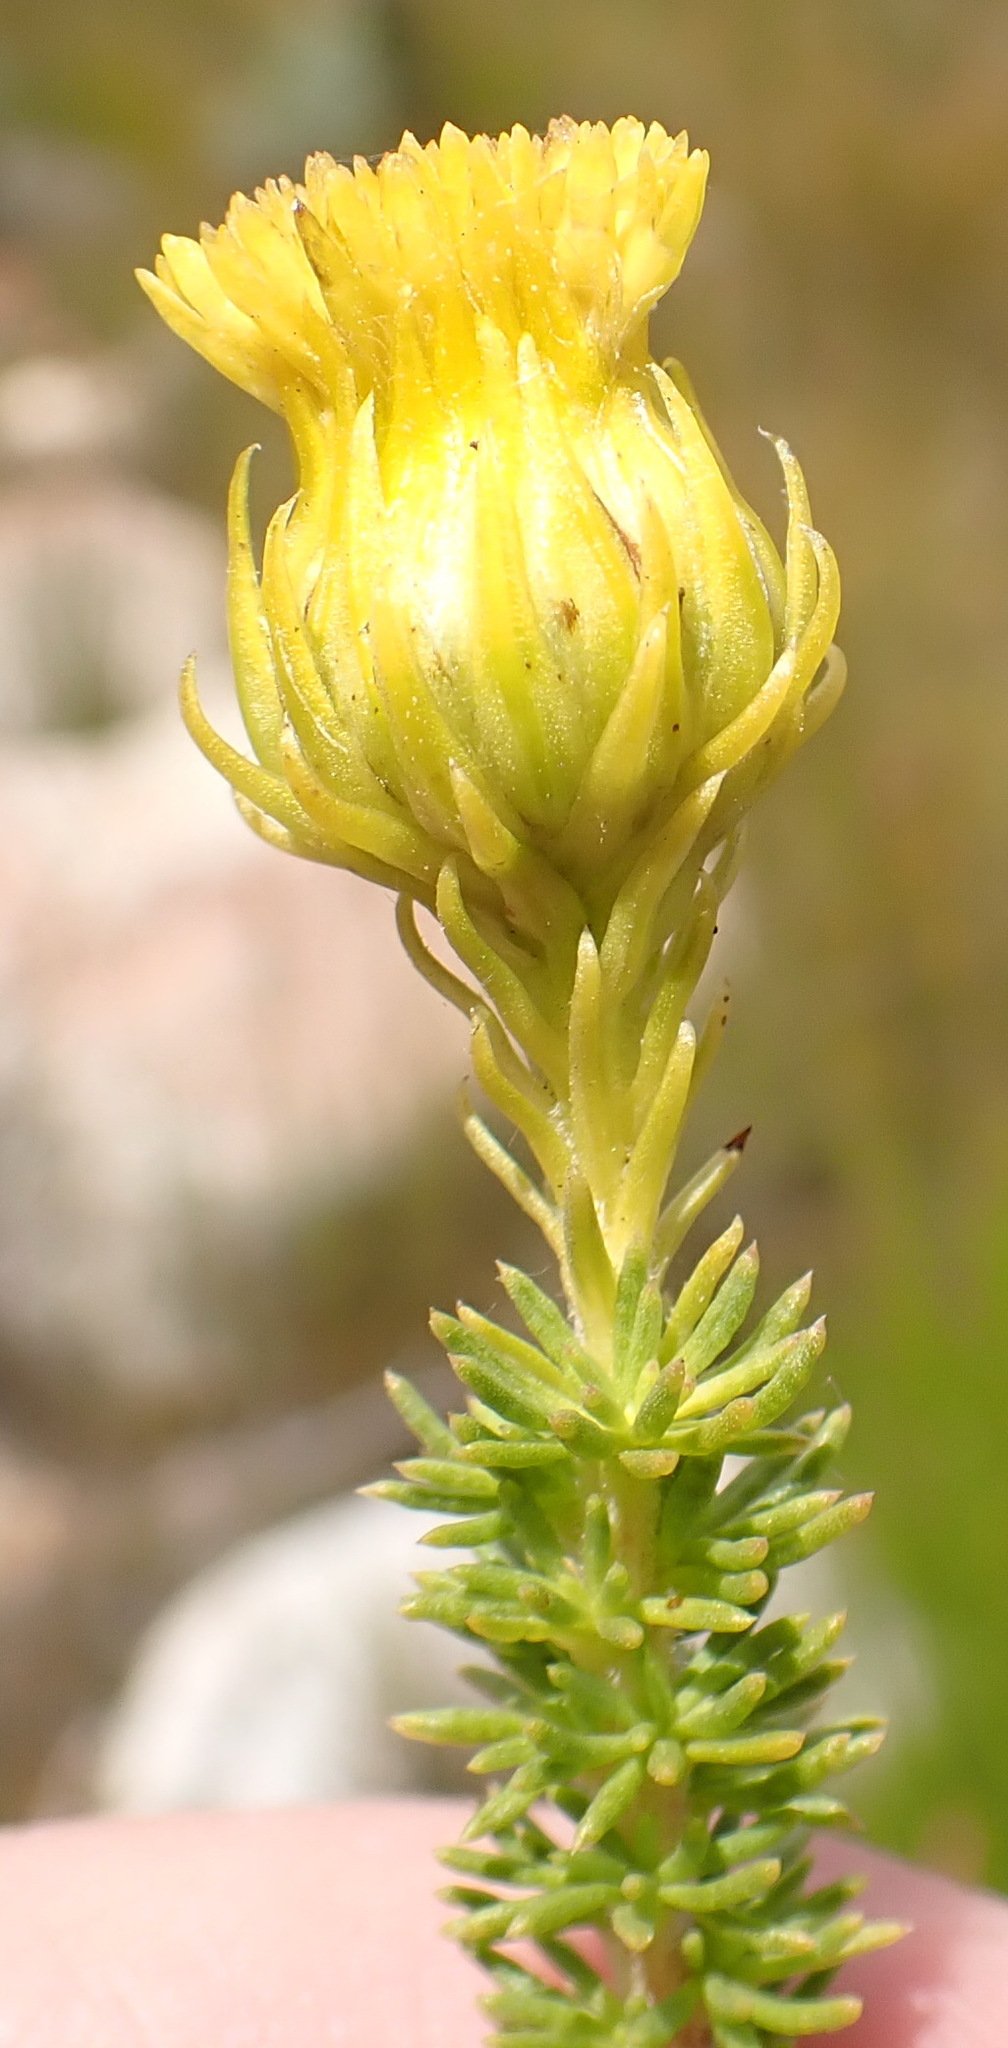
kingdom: Plantae
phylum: Tracheophyta
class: Magnoliopsida
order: Asterales
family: Asteraceae
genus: Pteronia
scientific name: Pteronia camphorata
